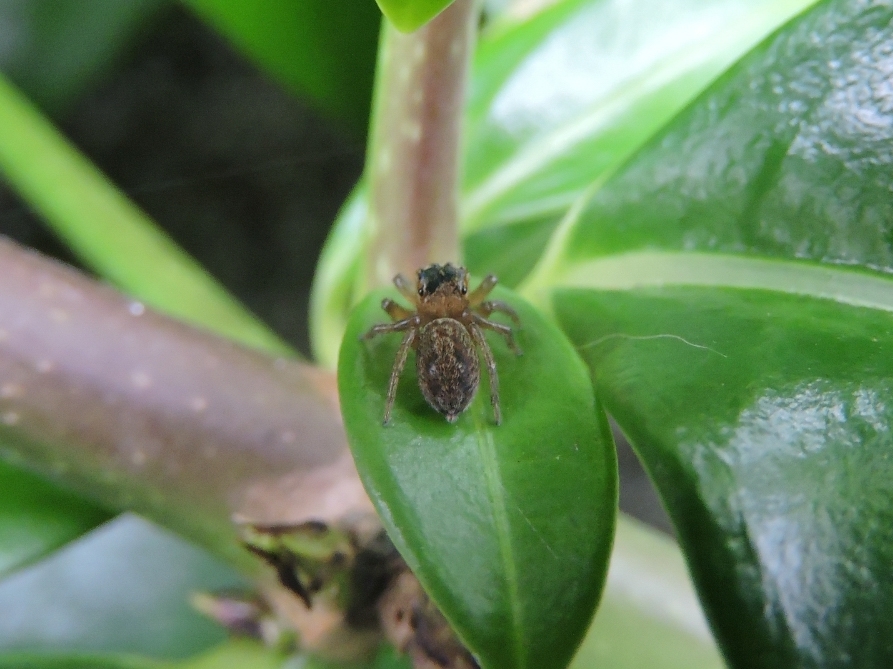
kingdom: Animalia
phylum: Arthropoda
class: Arachnida
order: Araneae
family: Salticidae
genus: Hasarius
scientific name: Hasarius adansoni
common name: Jumping spider
